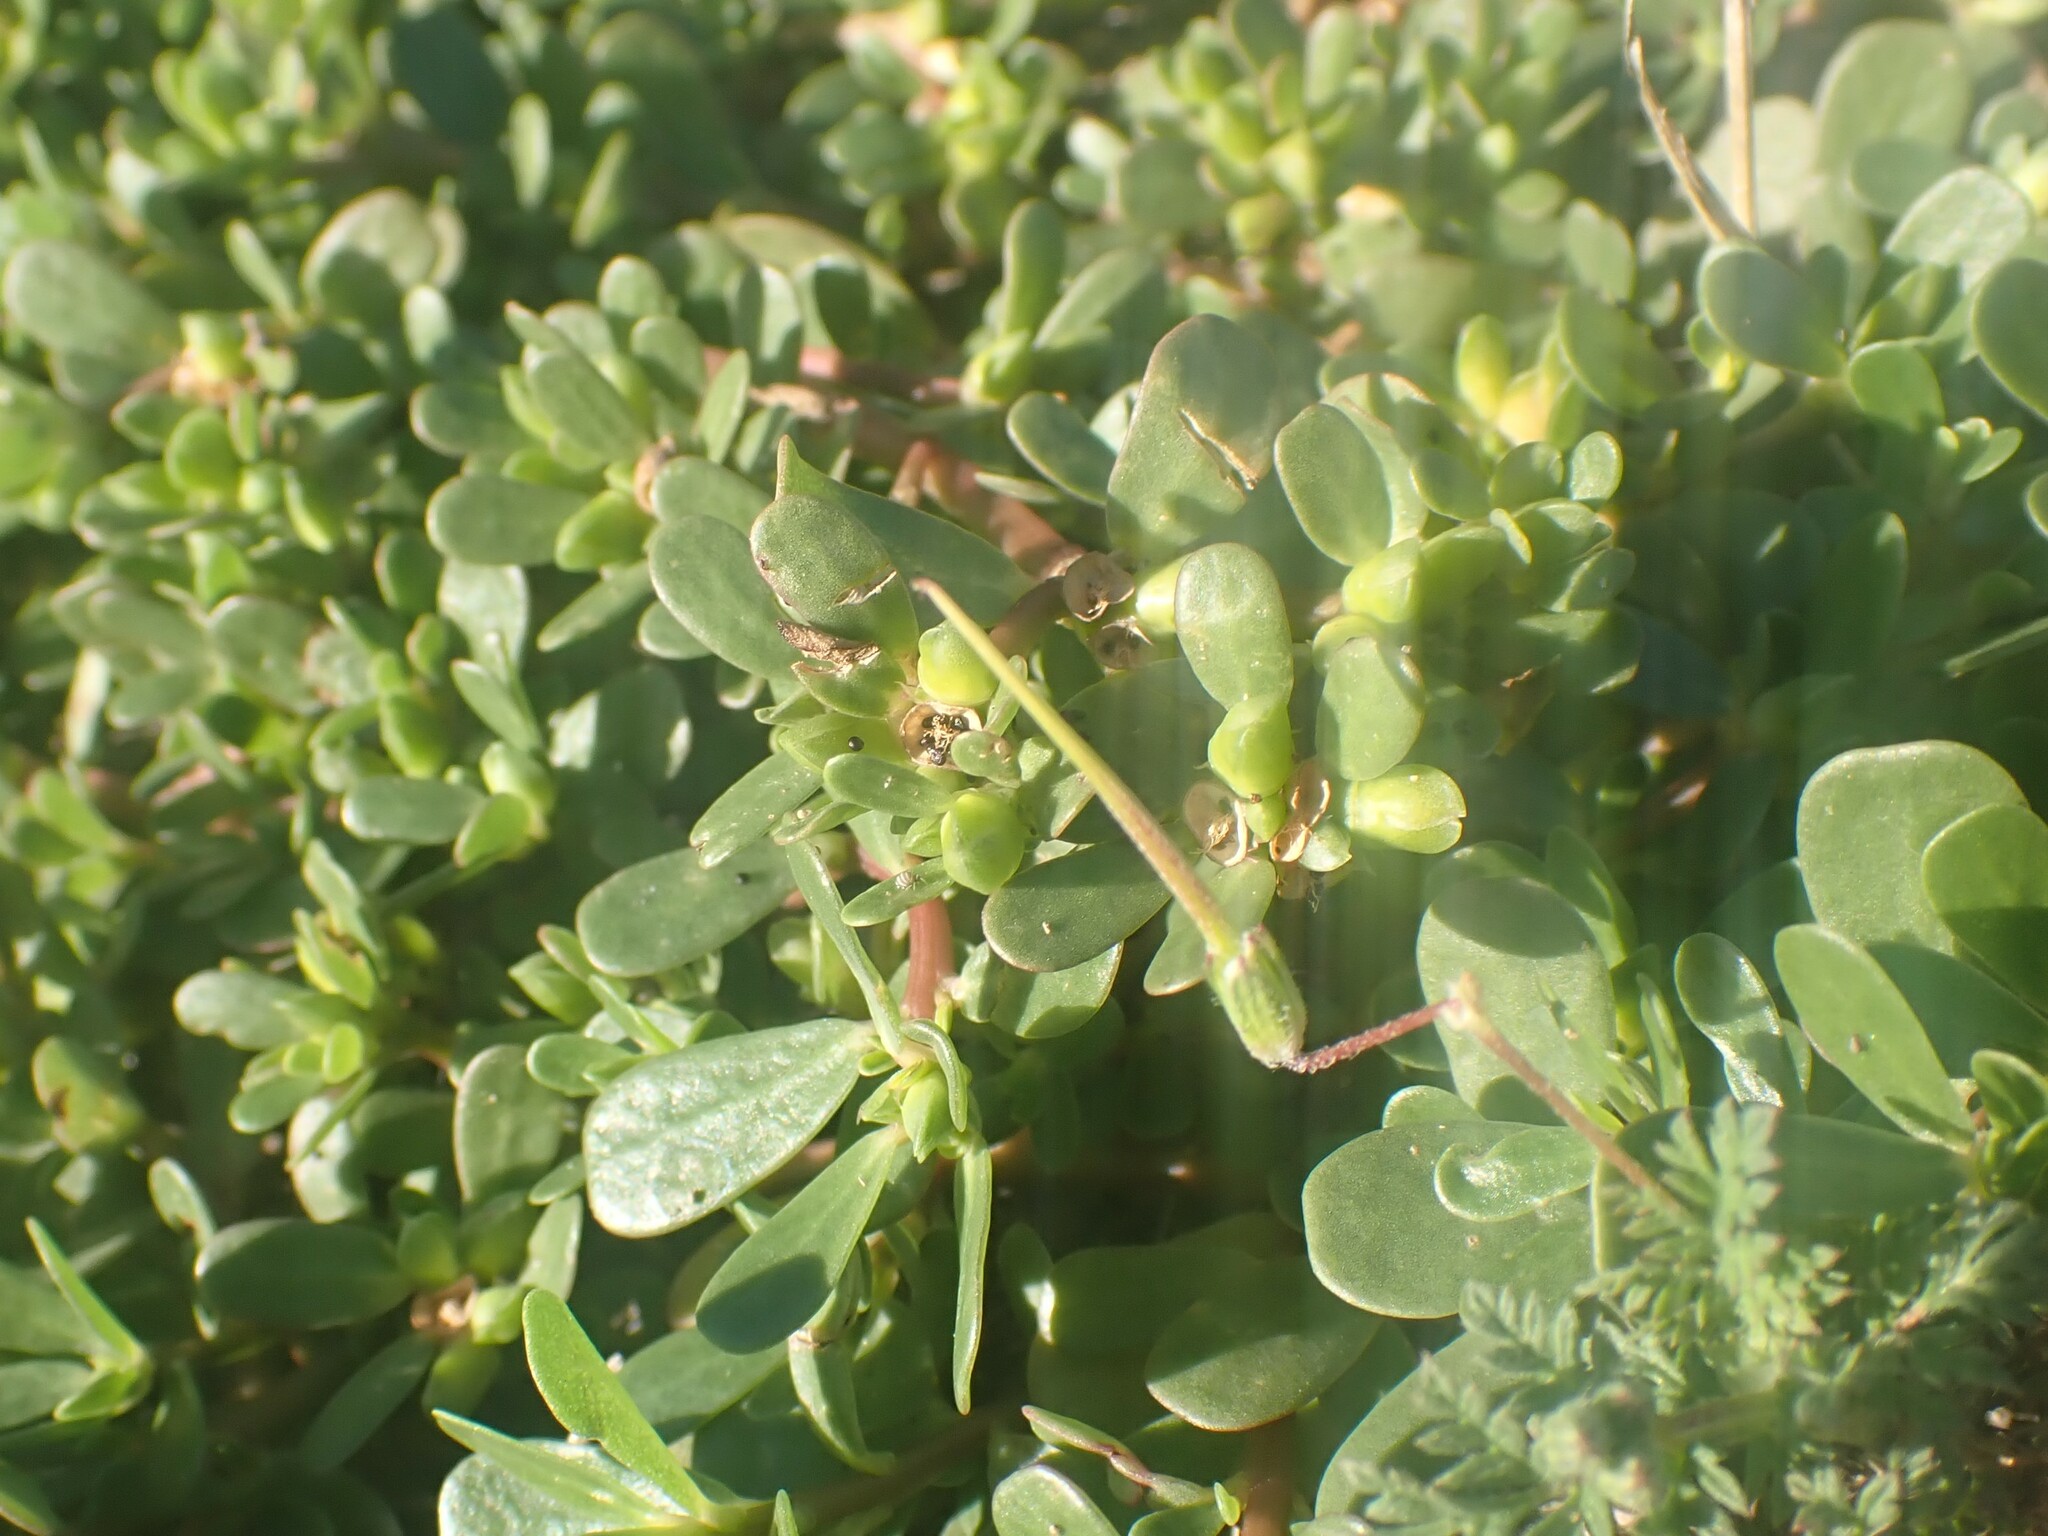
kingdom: Plantae
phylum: Tracheophyta
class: Magnoliopsida
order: Caryophyllales
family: Portulacaceae
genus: Portulaca
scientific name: Portulaca oleracea
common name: Common purslane
